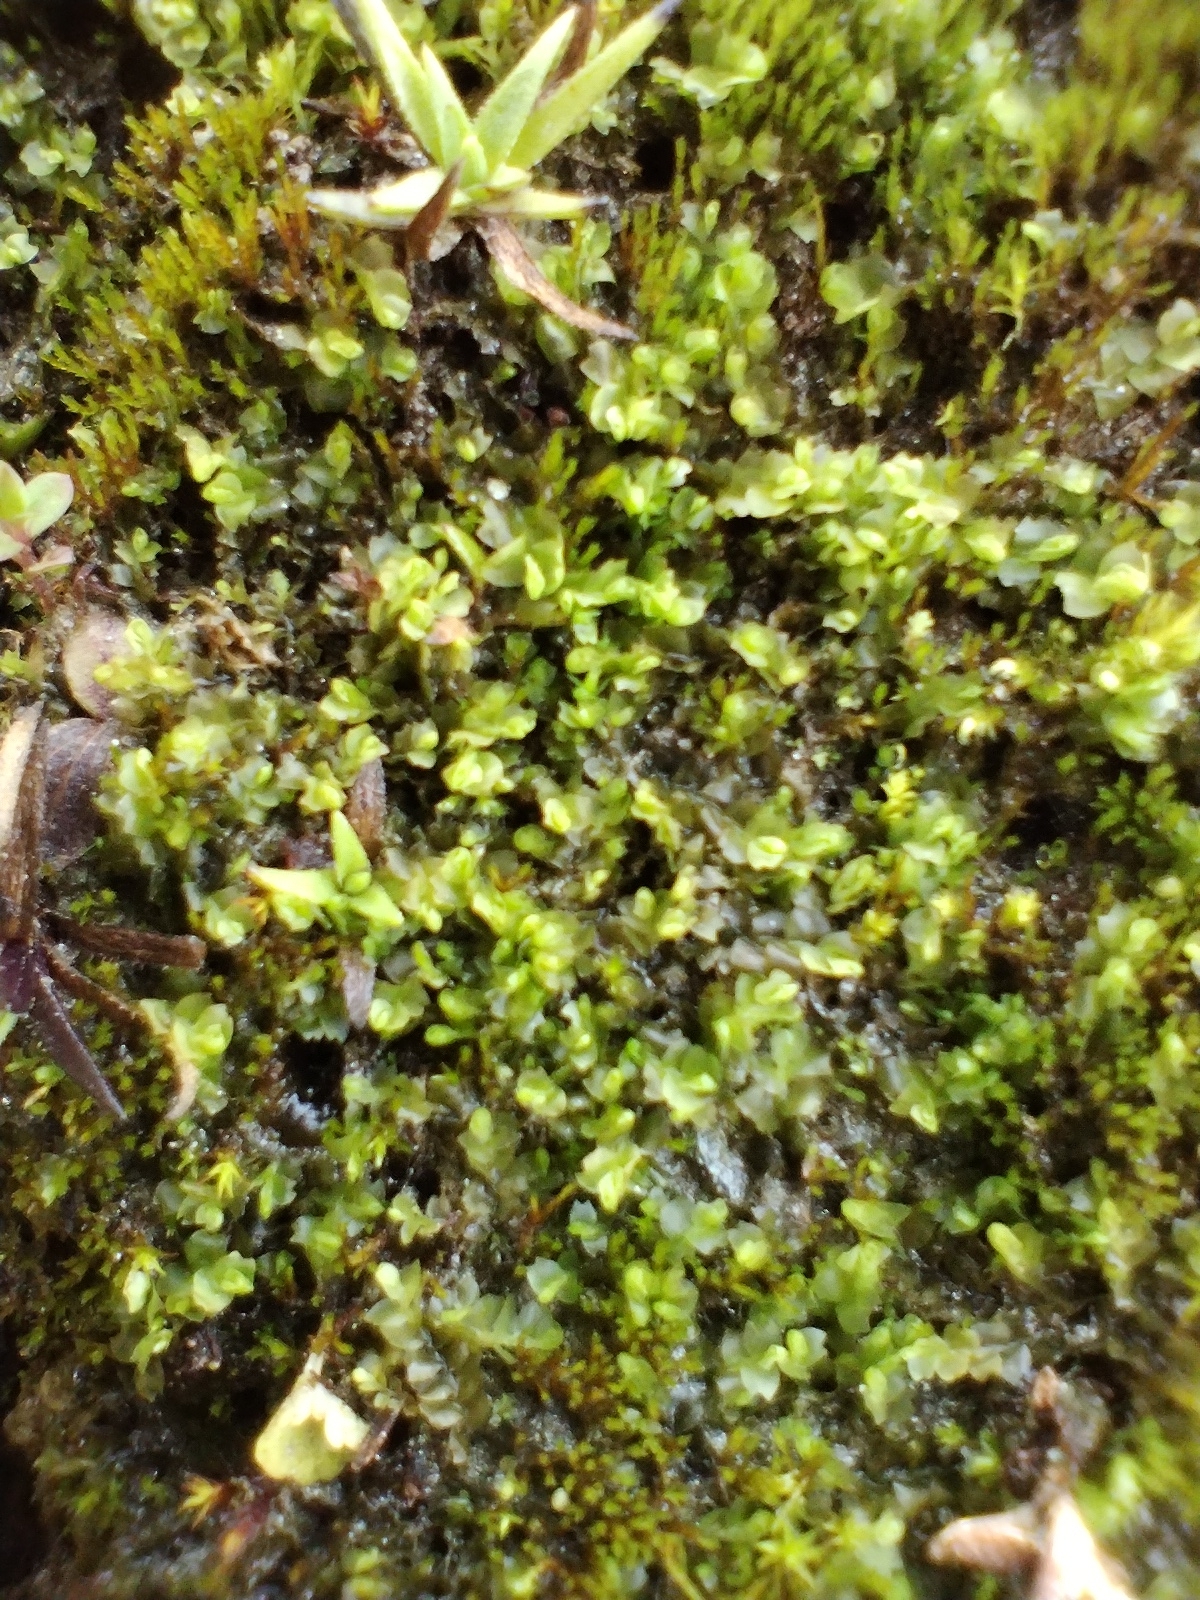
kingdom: Plantae
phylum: Marchantiophyta
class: Jungermanniopsida
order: Jungermanniales
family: Anastrophyllaceae
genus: Barbilophozia
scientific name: Barbilophozia barbata
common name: Bearded pawwort
